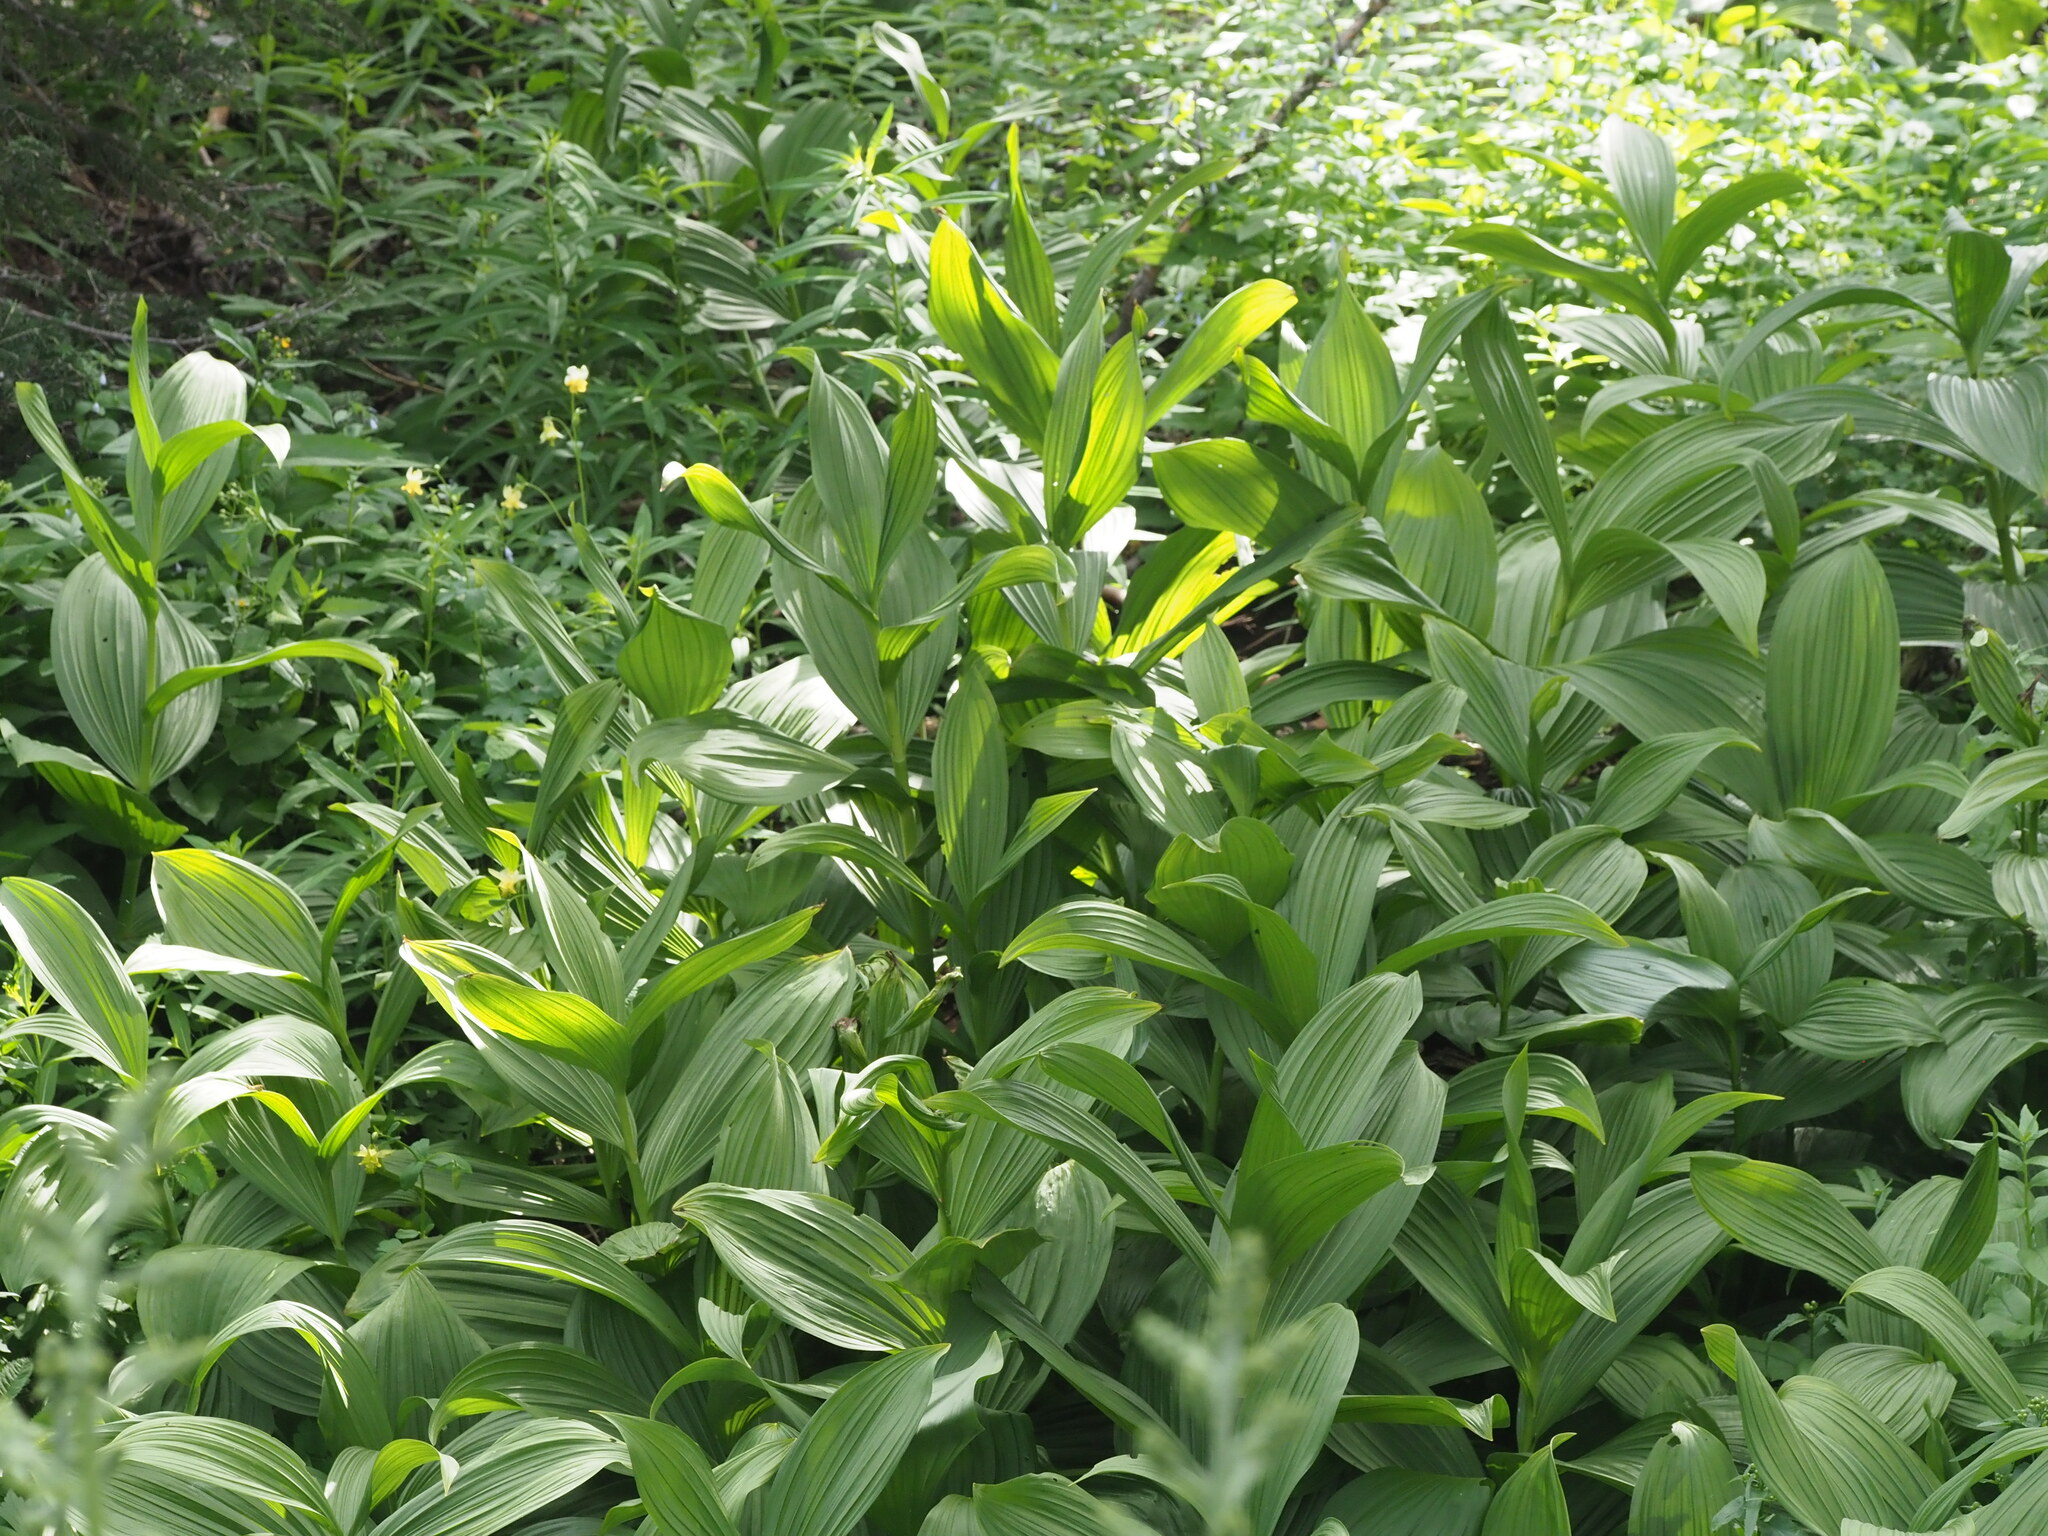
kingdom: Plantae
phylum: Tracheophyta
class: Liliopsida
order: Liliales
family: Melanthiaceae
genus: Veratrum
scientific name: Veratrum viride
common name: American false hellebore
